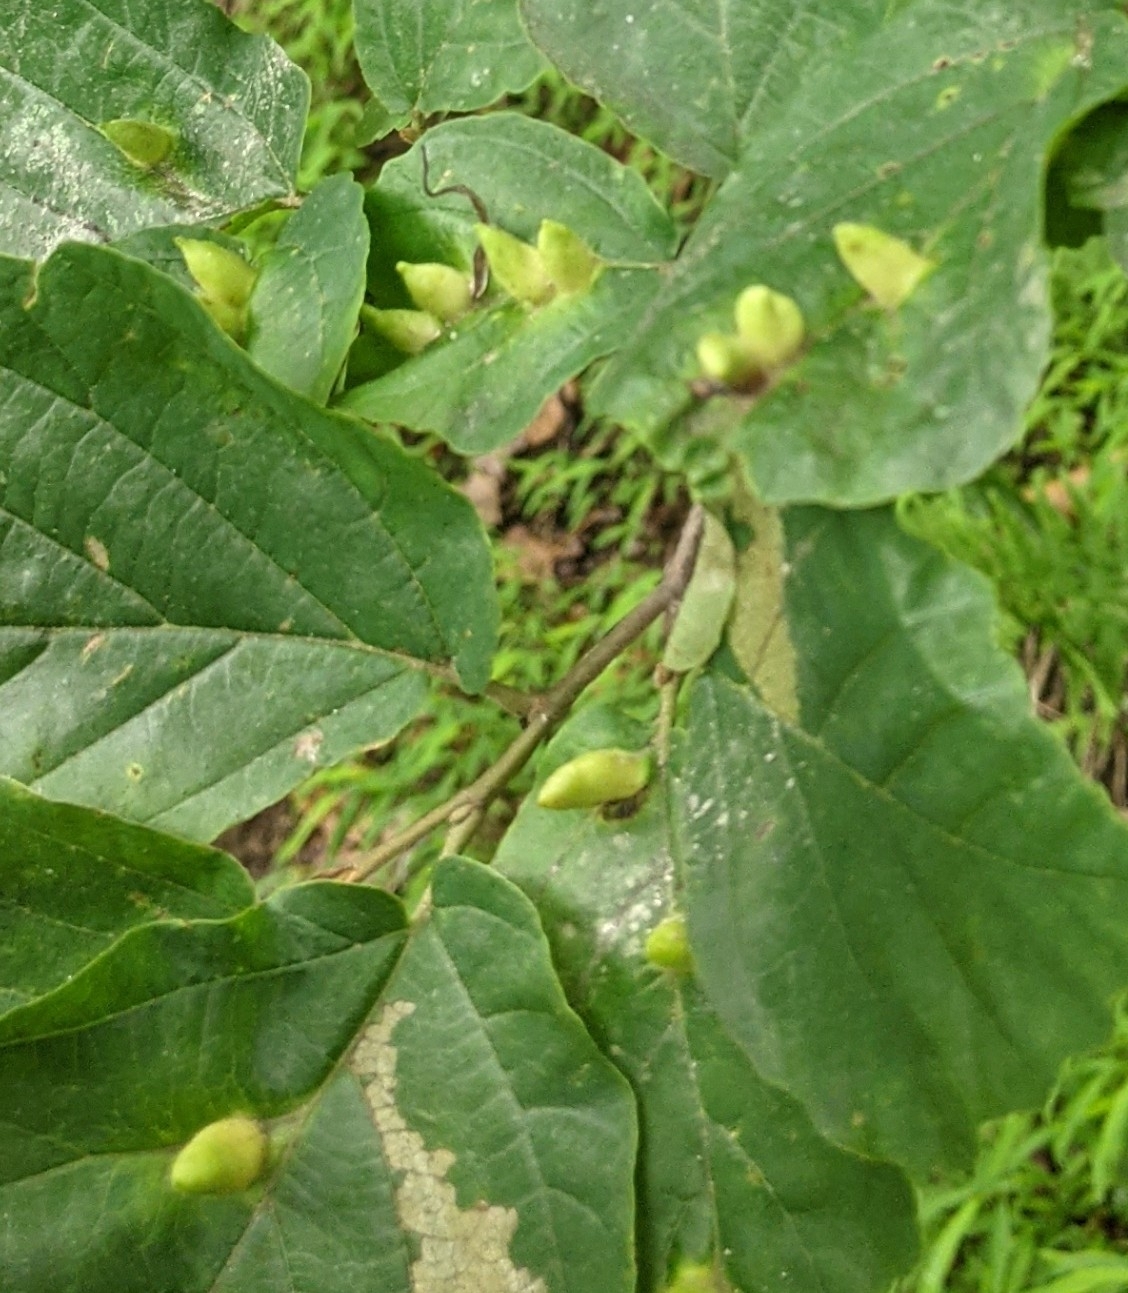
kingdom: Animalia
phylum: Arthropoda
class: Insecta
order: Hemiptera
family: Aphididae
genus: Hormaphis
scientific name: Hormaphis hamamelidis
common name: Witch-hazel cone gall aphid
